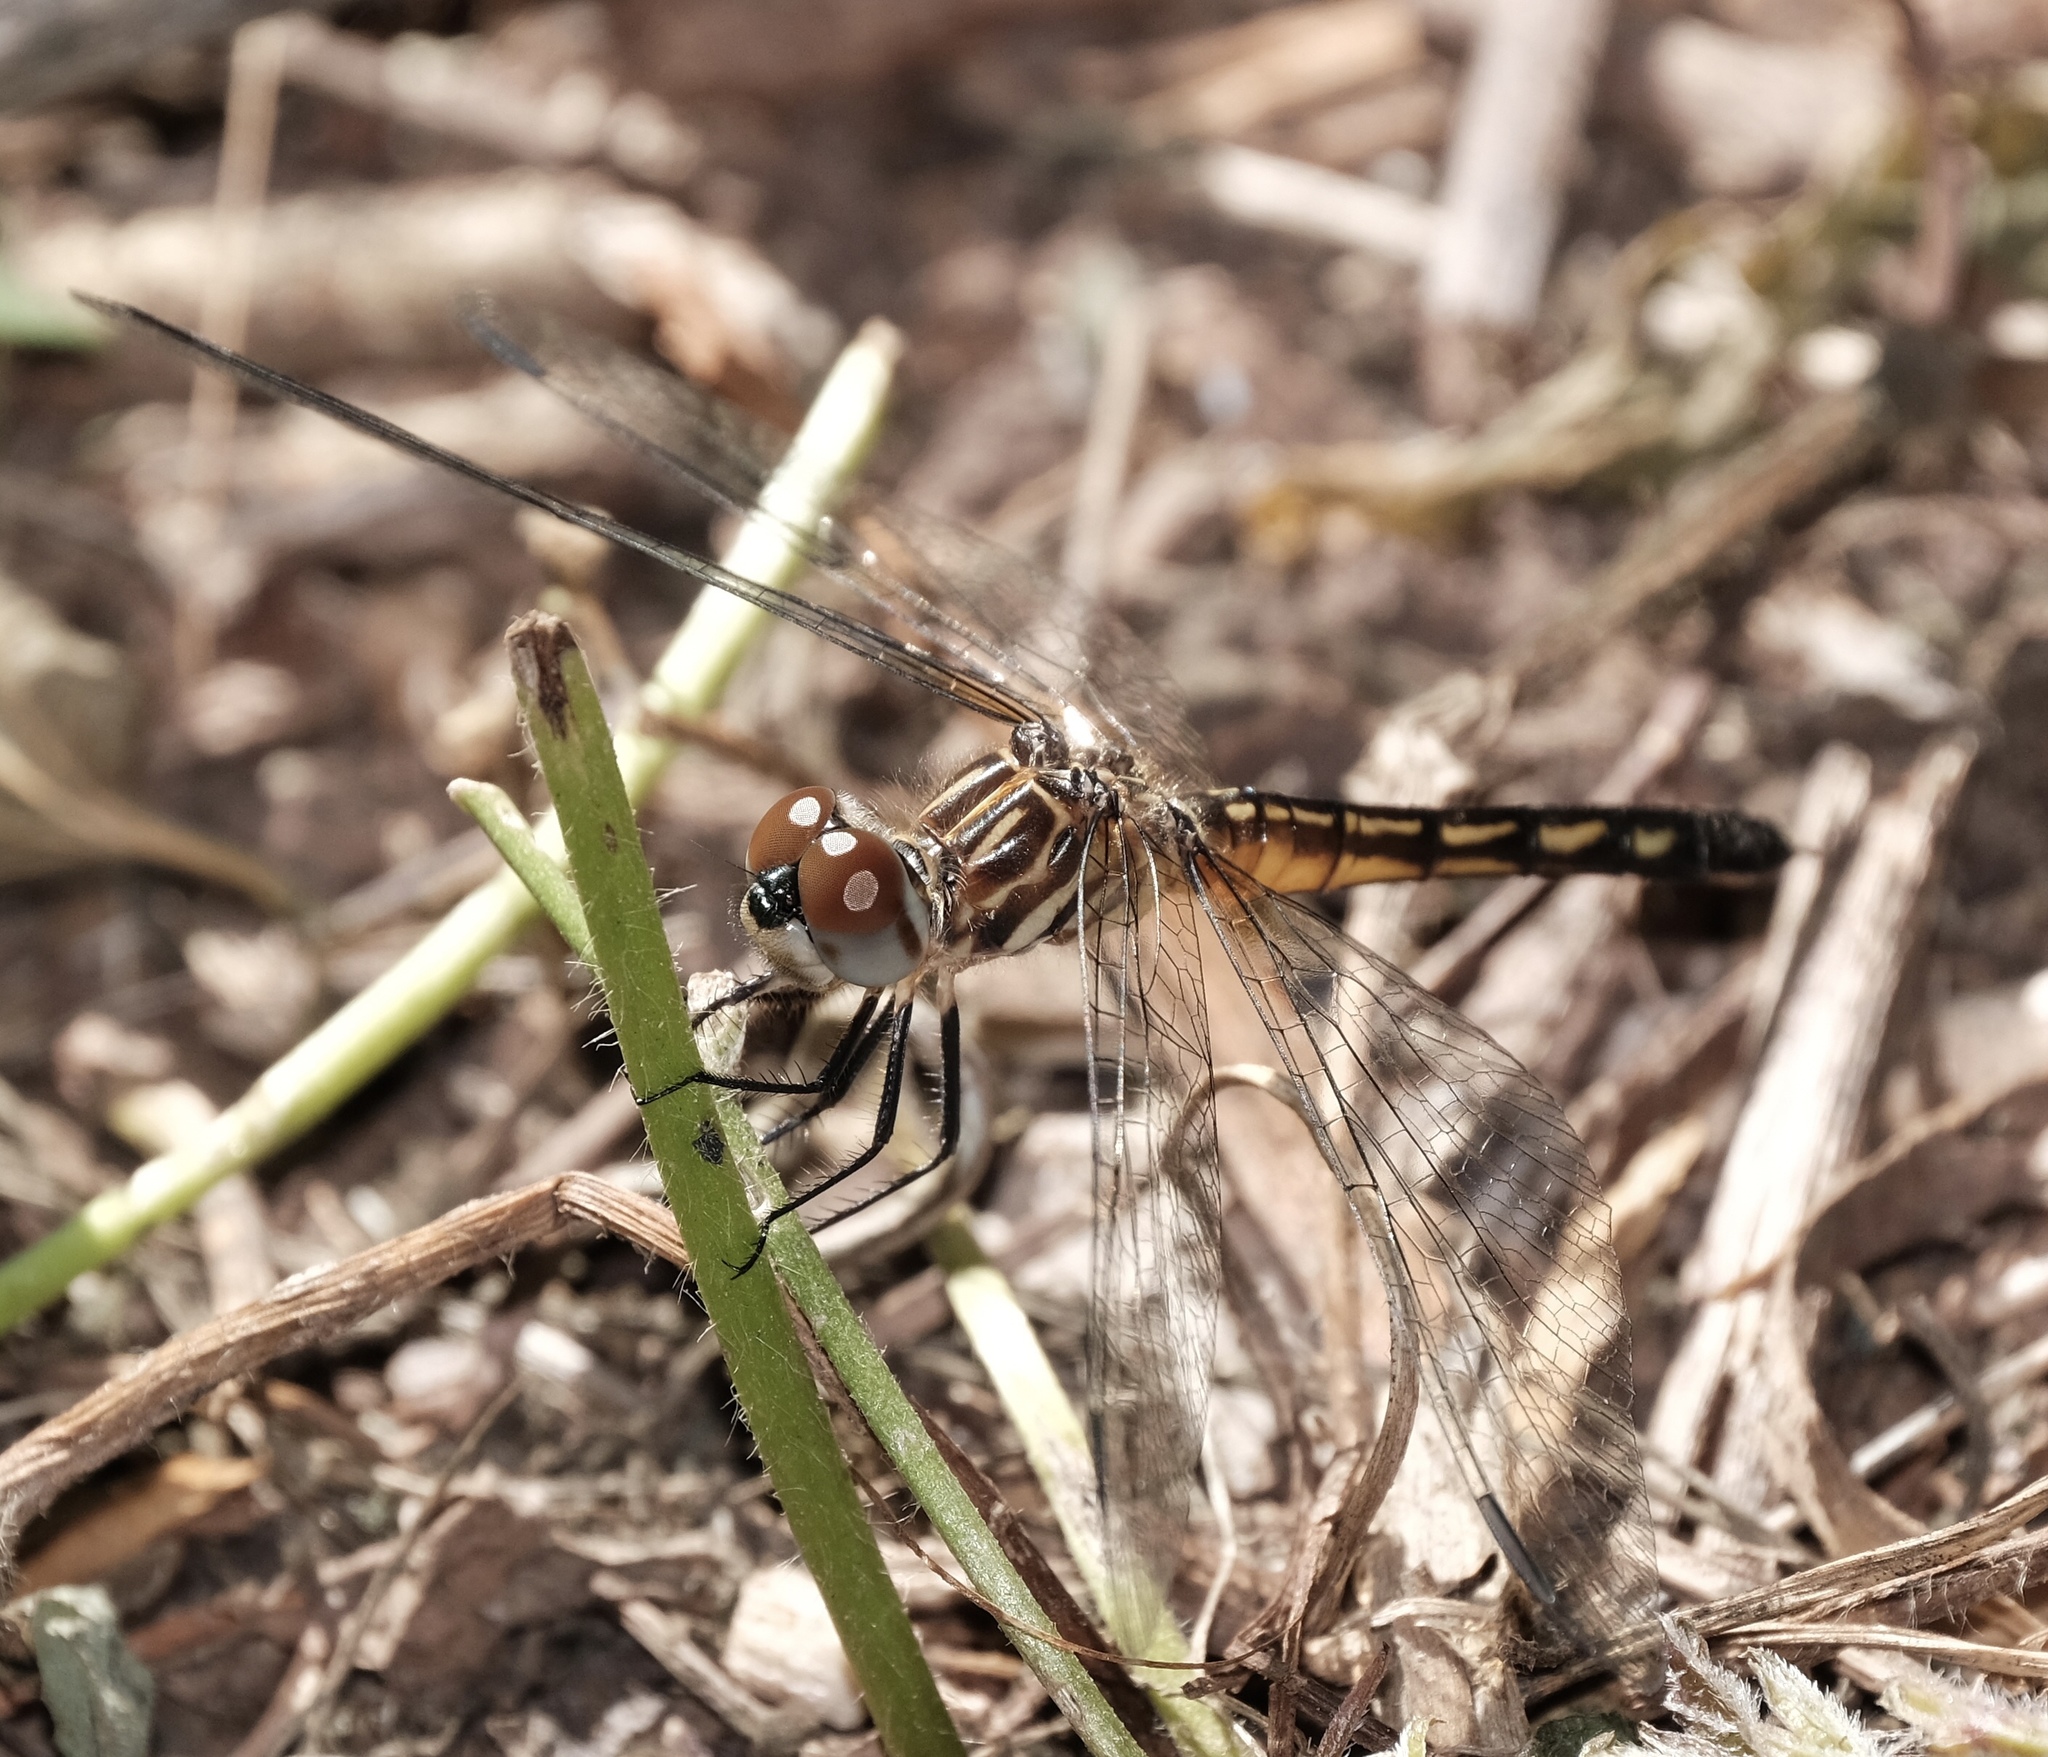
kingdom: Animalia
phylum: Arthropoda
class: Insecta
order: Odonata
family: Libellulidae
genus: Pachydiplax
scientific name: Pachydiplax longipennis
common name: Blue dasher
